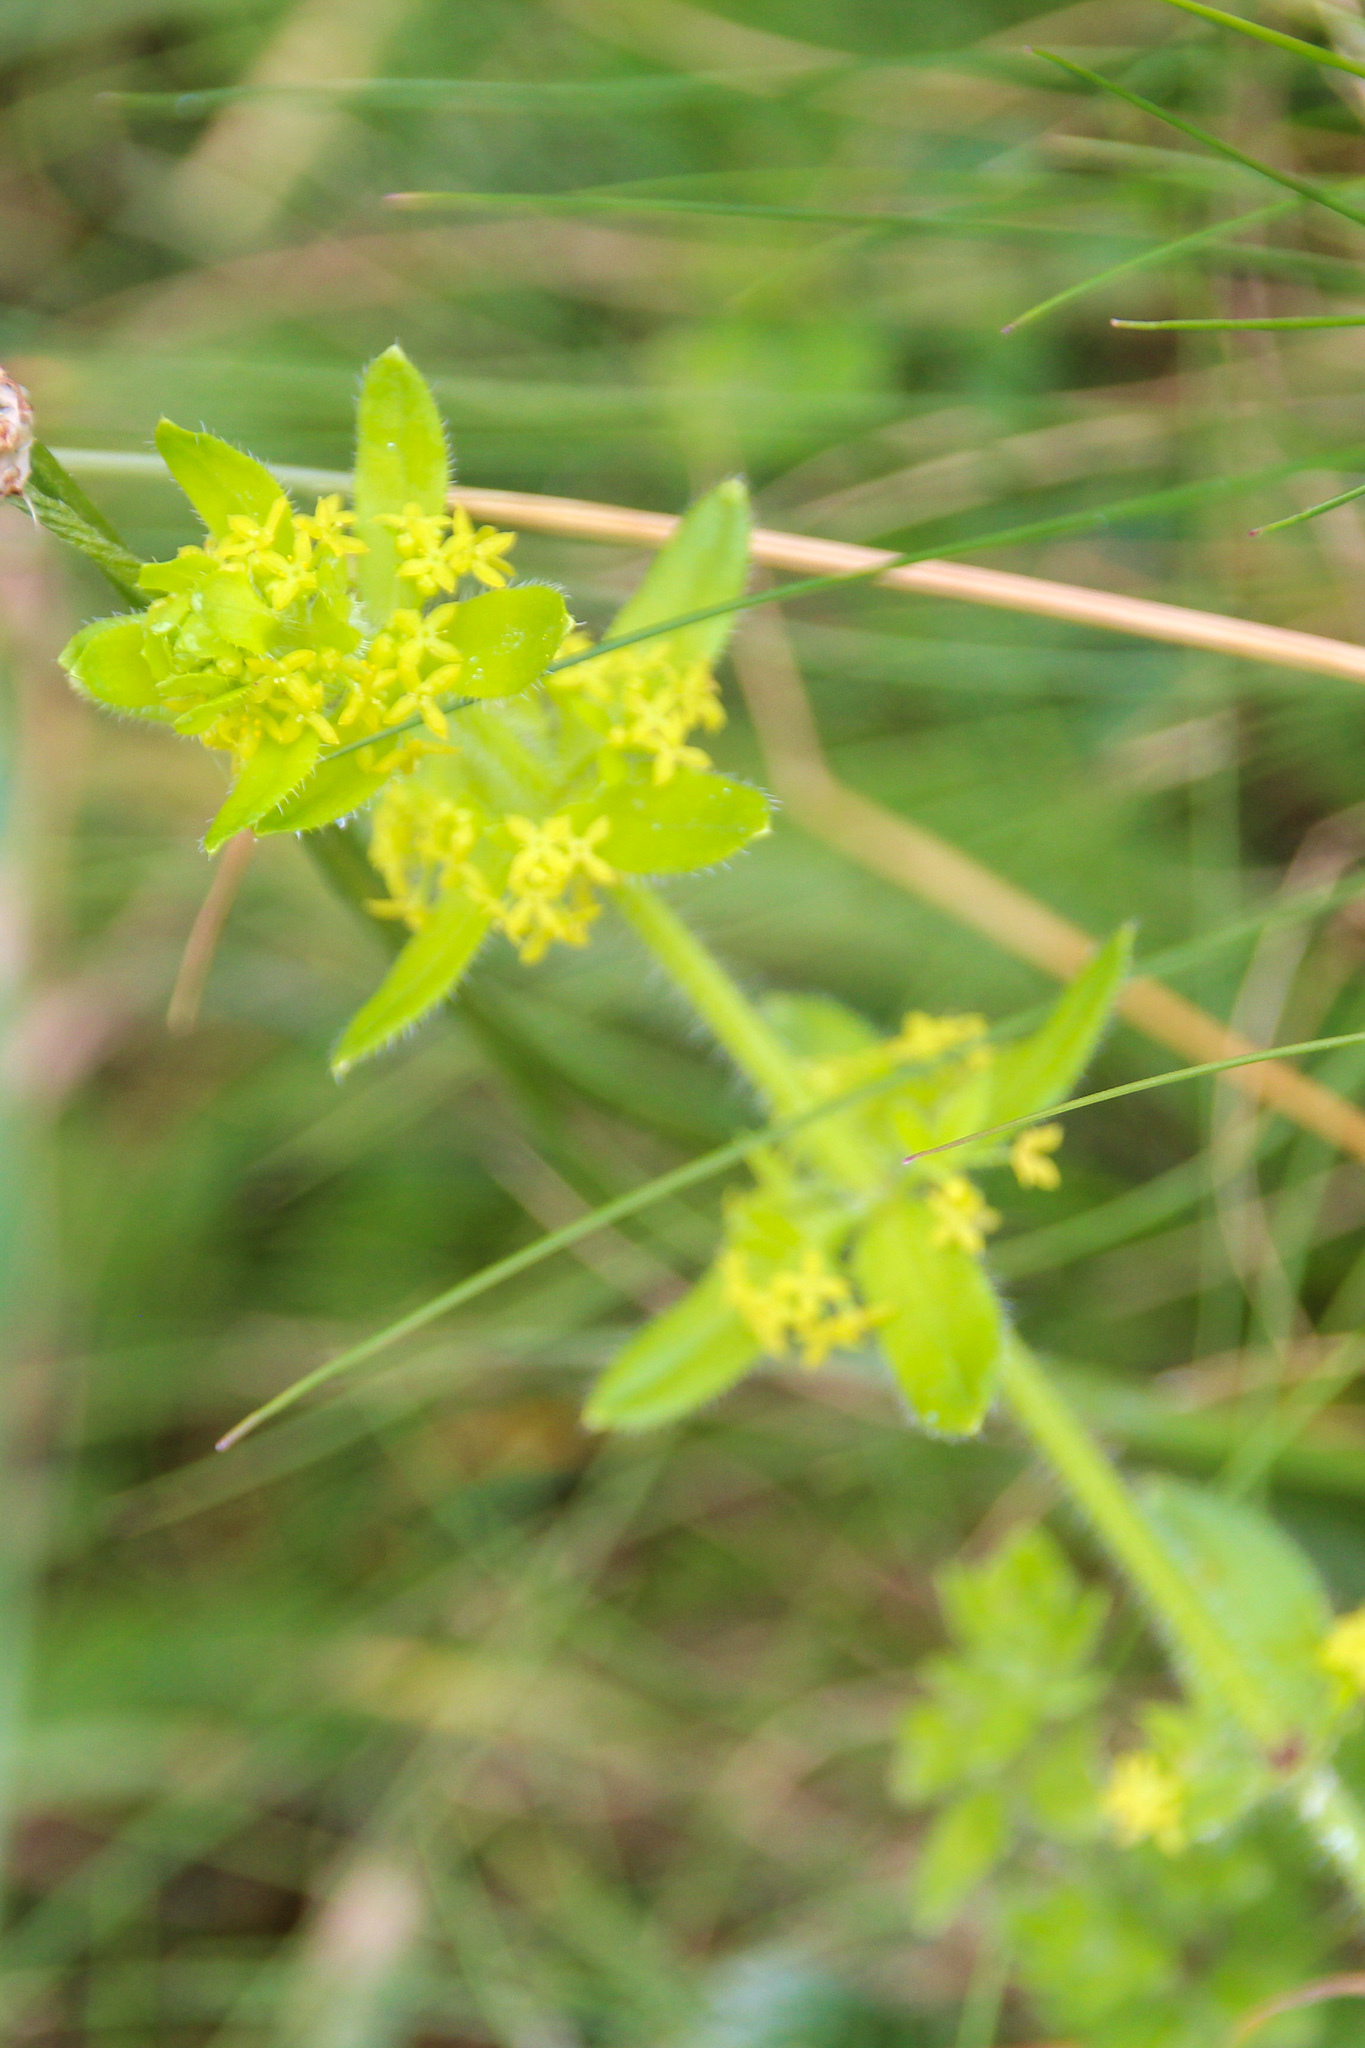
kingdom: Plantae
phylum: Tracheophyta
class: Magnoliopsida
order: Gentianales
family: Rubiaceae
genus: Cruciata
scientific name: Cruciata laevipes
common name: Crosswort
